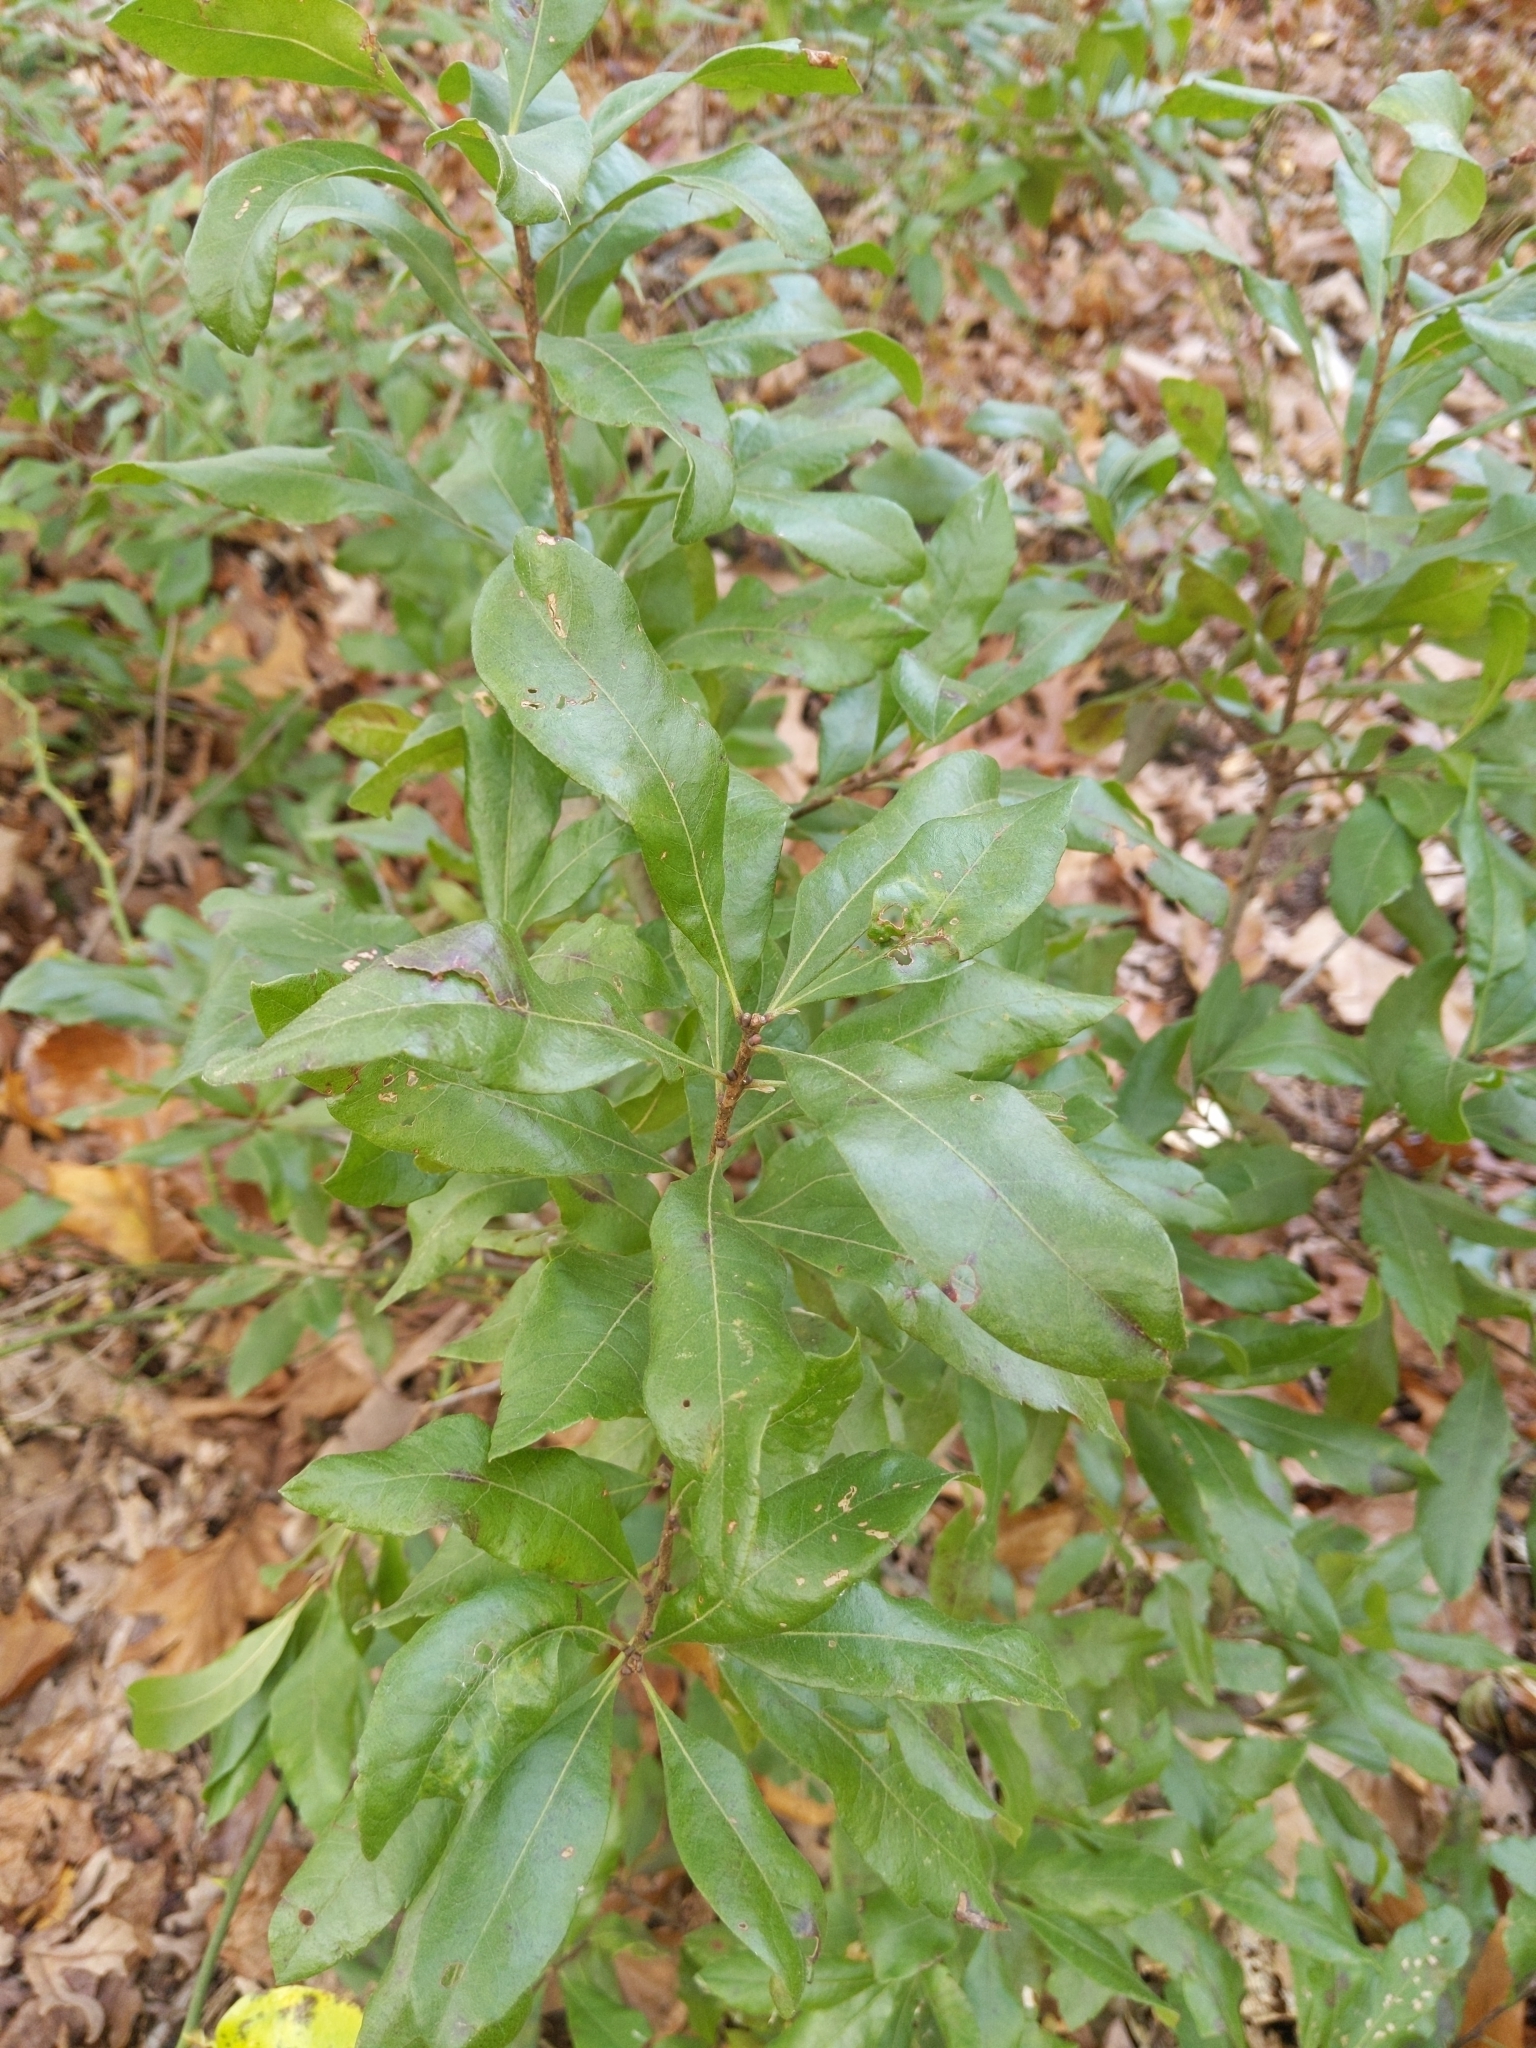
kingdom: Plantae
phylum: Tracheophyta
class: Magnoliopsida
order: Fagales
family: Myricaceae
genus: Morella
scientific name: Morella pensylvanica
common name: Northern bayberry
